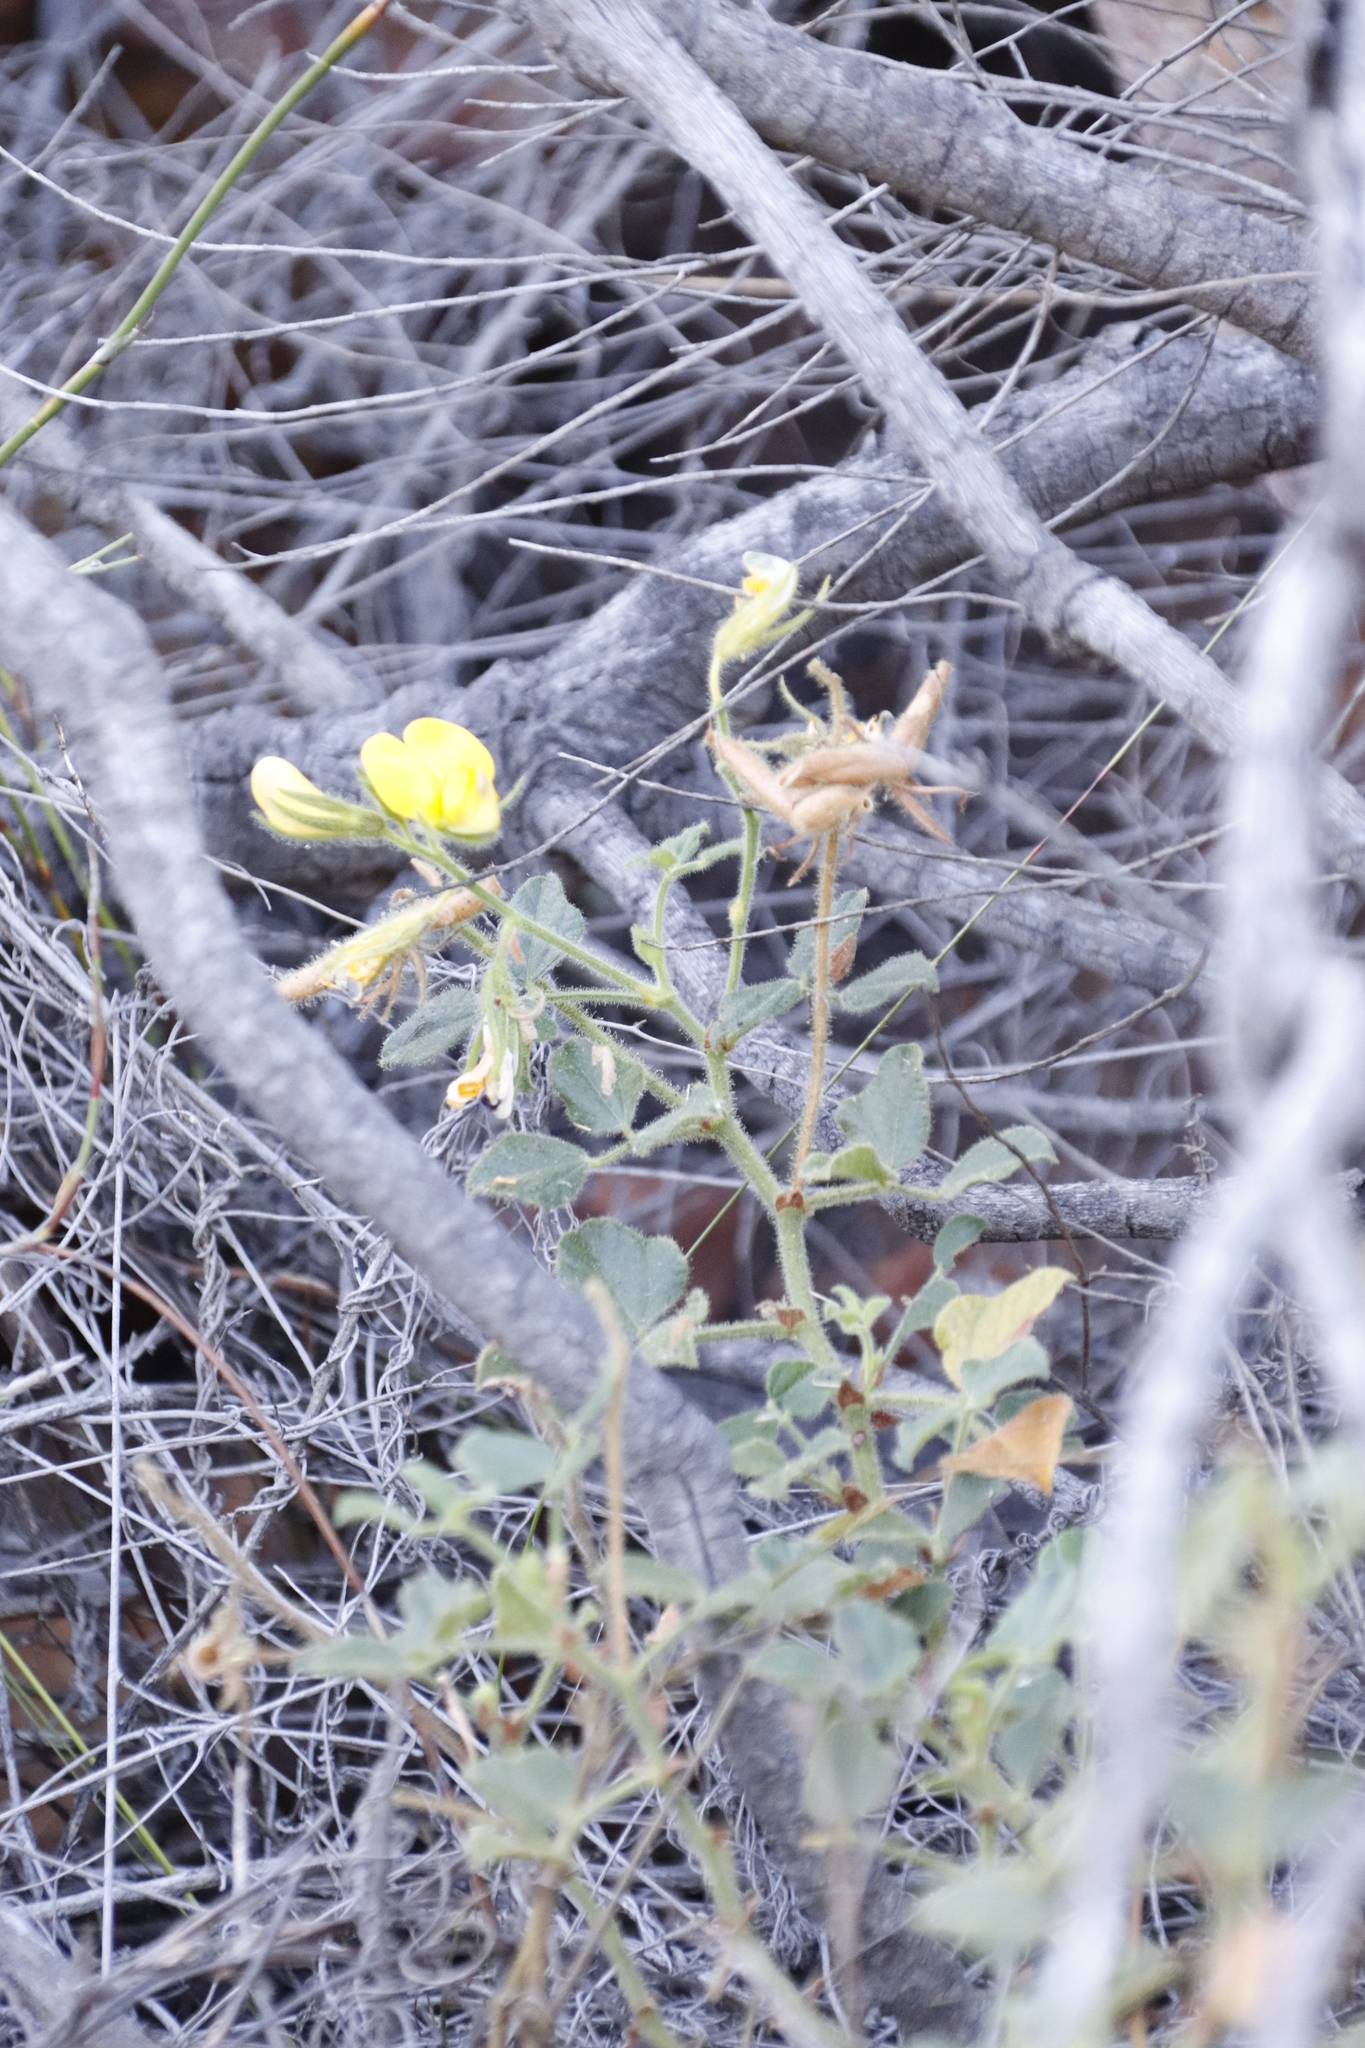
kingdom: Plantae
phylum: Tracheophyta
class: Magnoliopsida
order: Fabales
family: Fabaceae
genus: Bolusafra
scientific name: Bolusafra bituminosa
